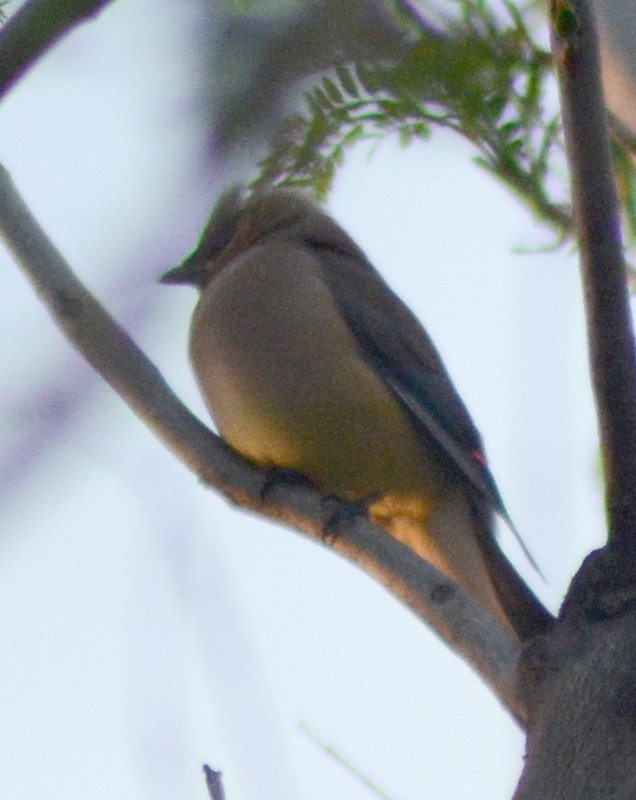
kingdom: Animalia
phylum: Chordata
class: Aves
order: Passeriformes
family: Bombycillidae
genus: Bombycilla
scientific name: Bombycilla cedrorum
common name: Cedar waxwing
